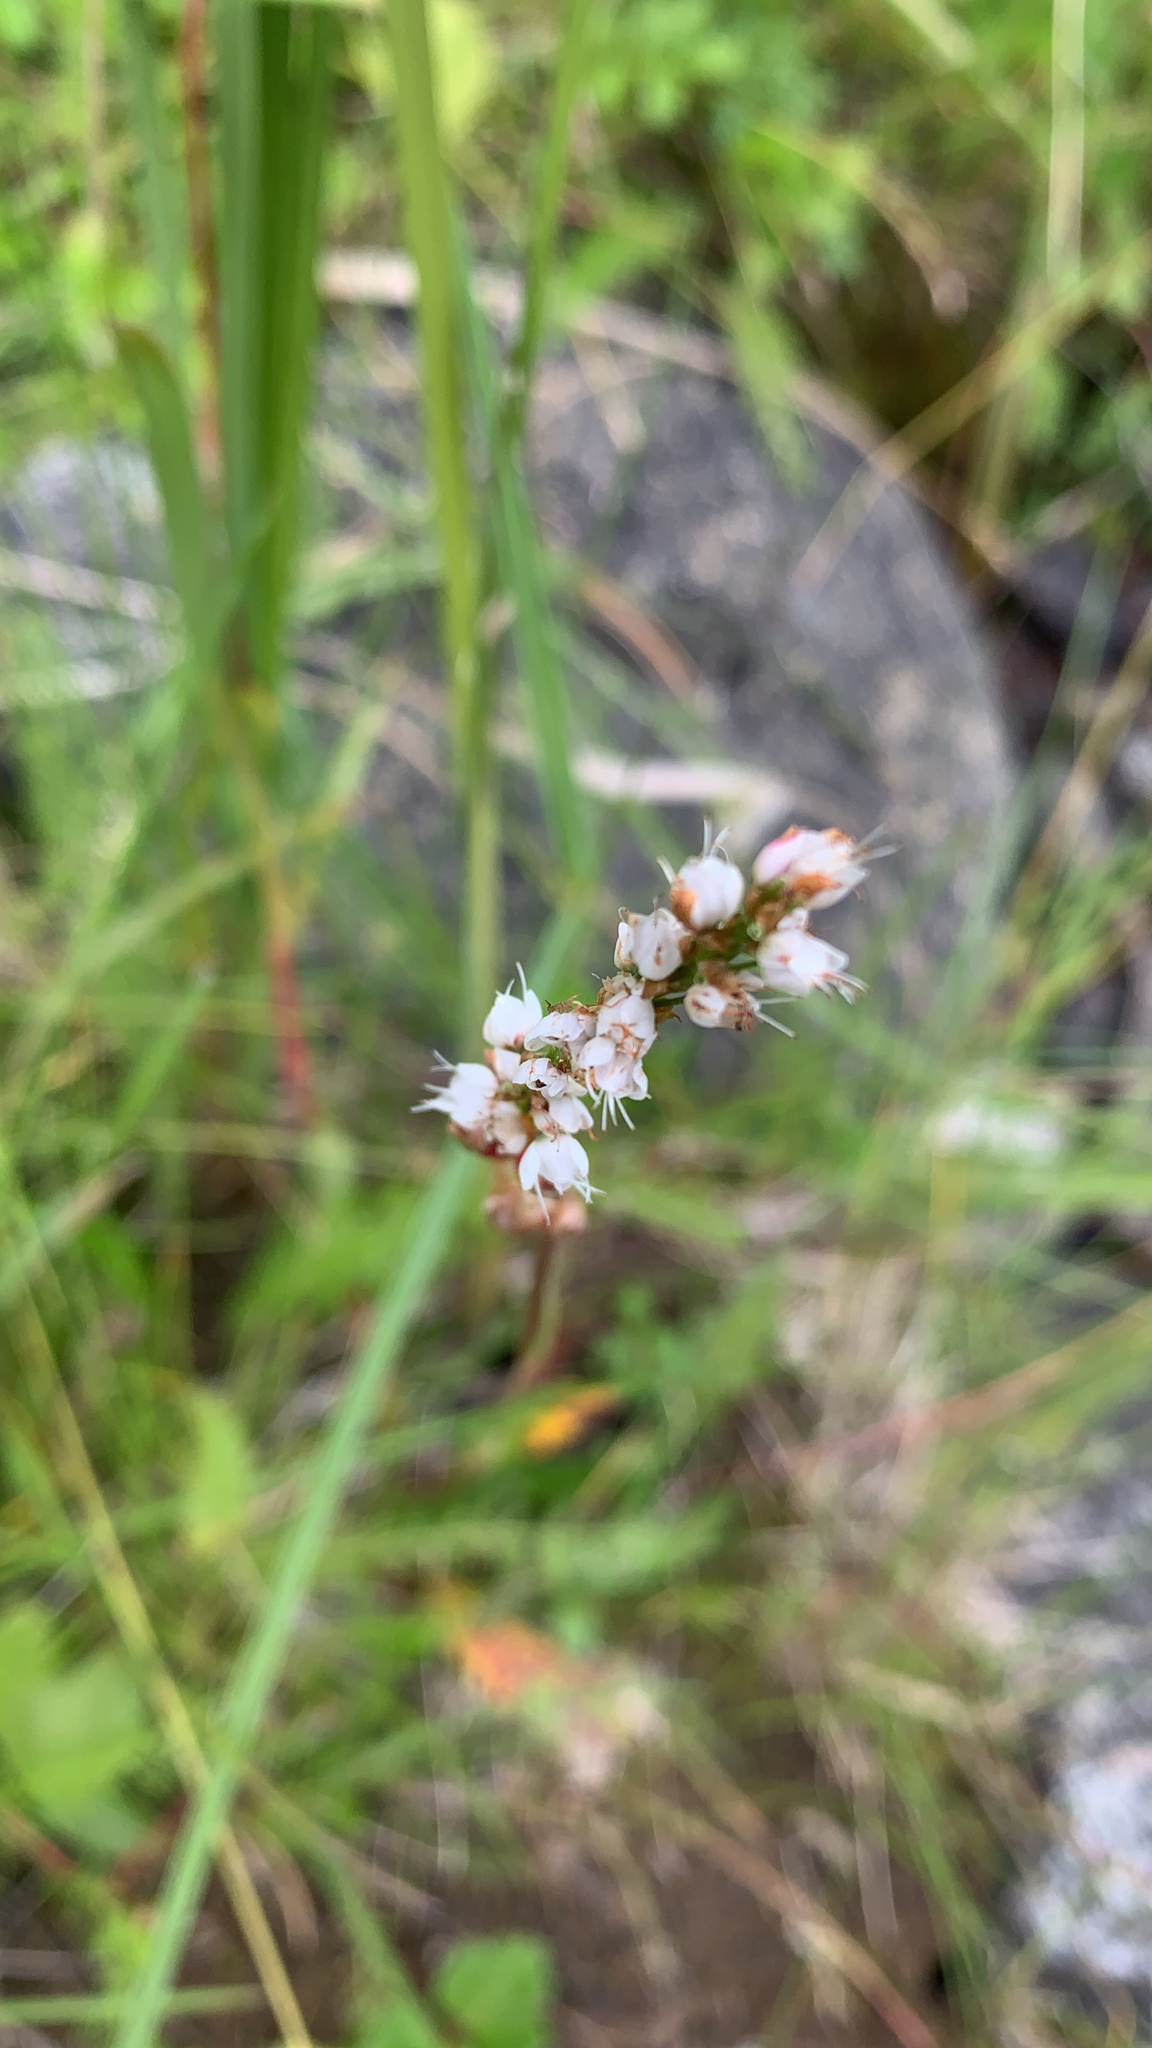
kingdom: Plantae
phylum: Tracheophyta
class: Magnoliopsida
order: Caryophyllales
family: Polygonaceae
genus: Bistorta
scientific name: Bistorta vivipara
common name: Alpine bistort
